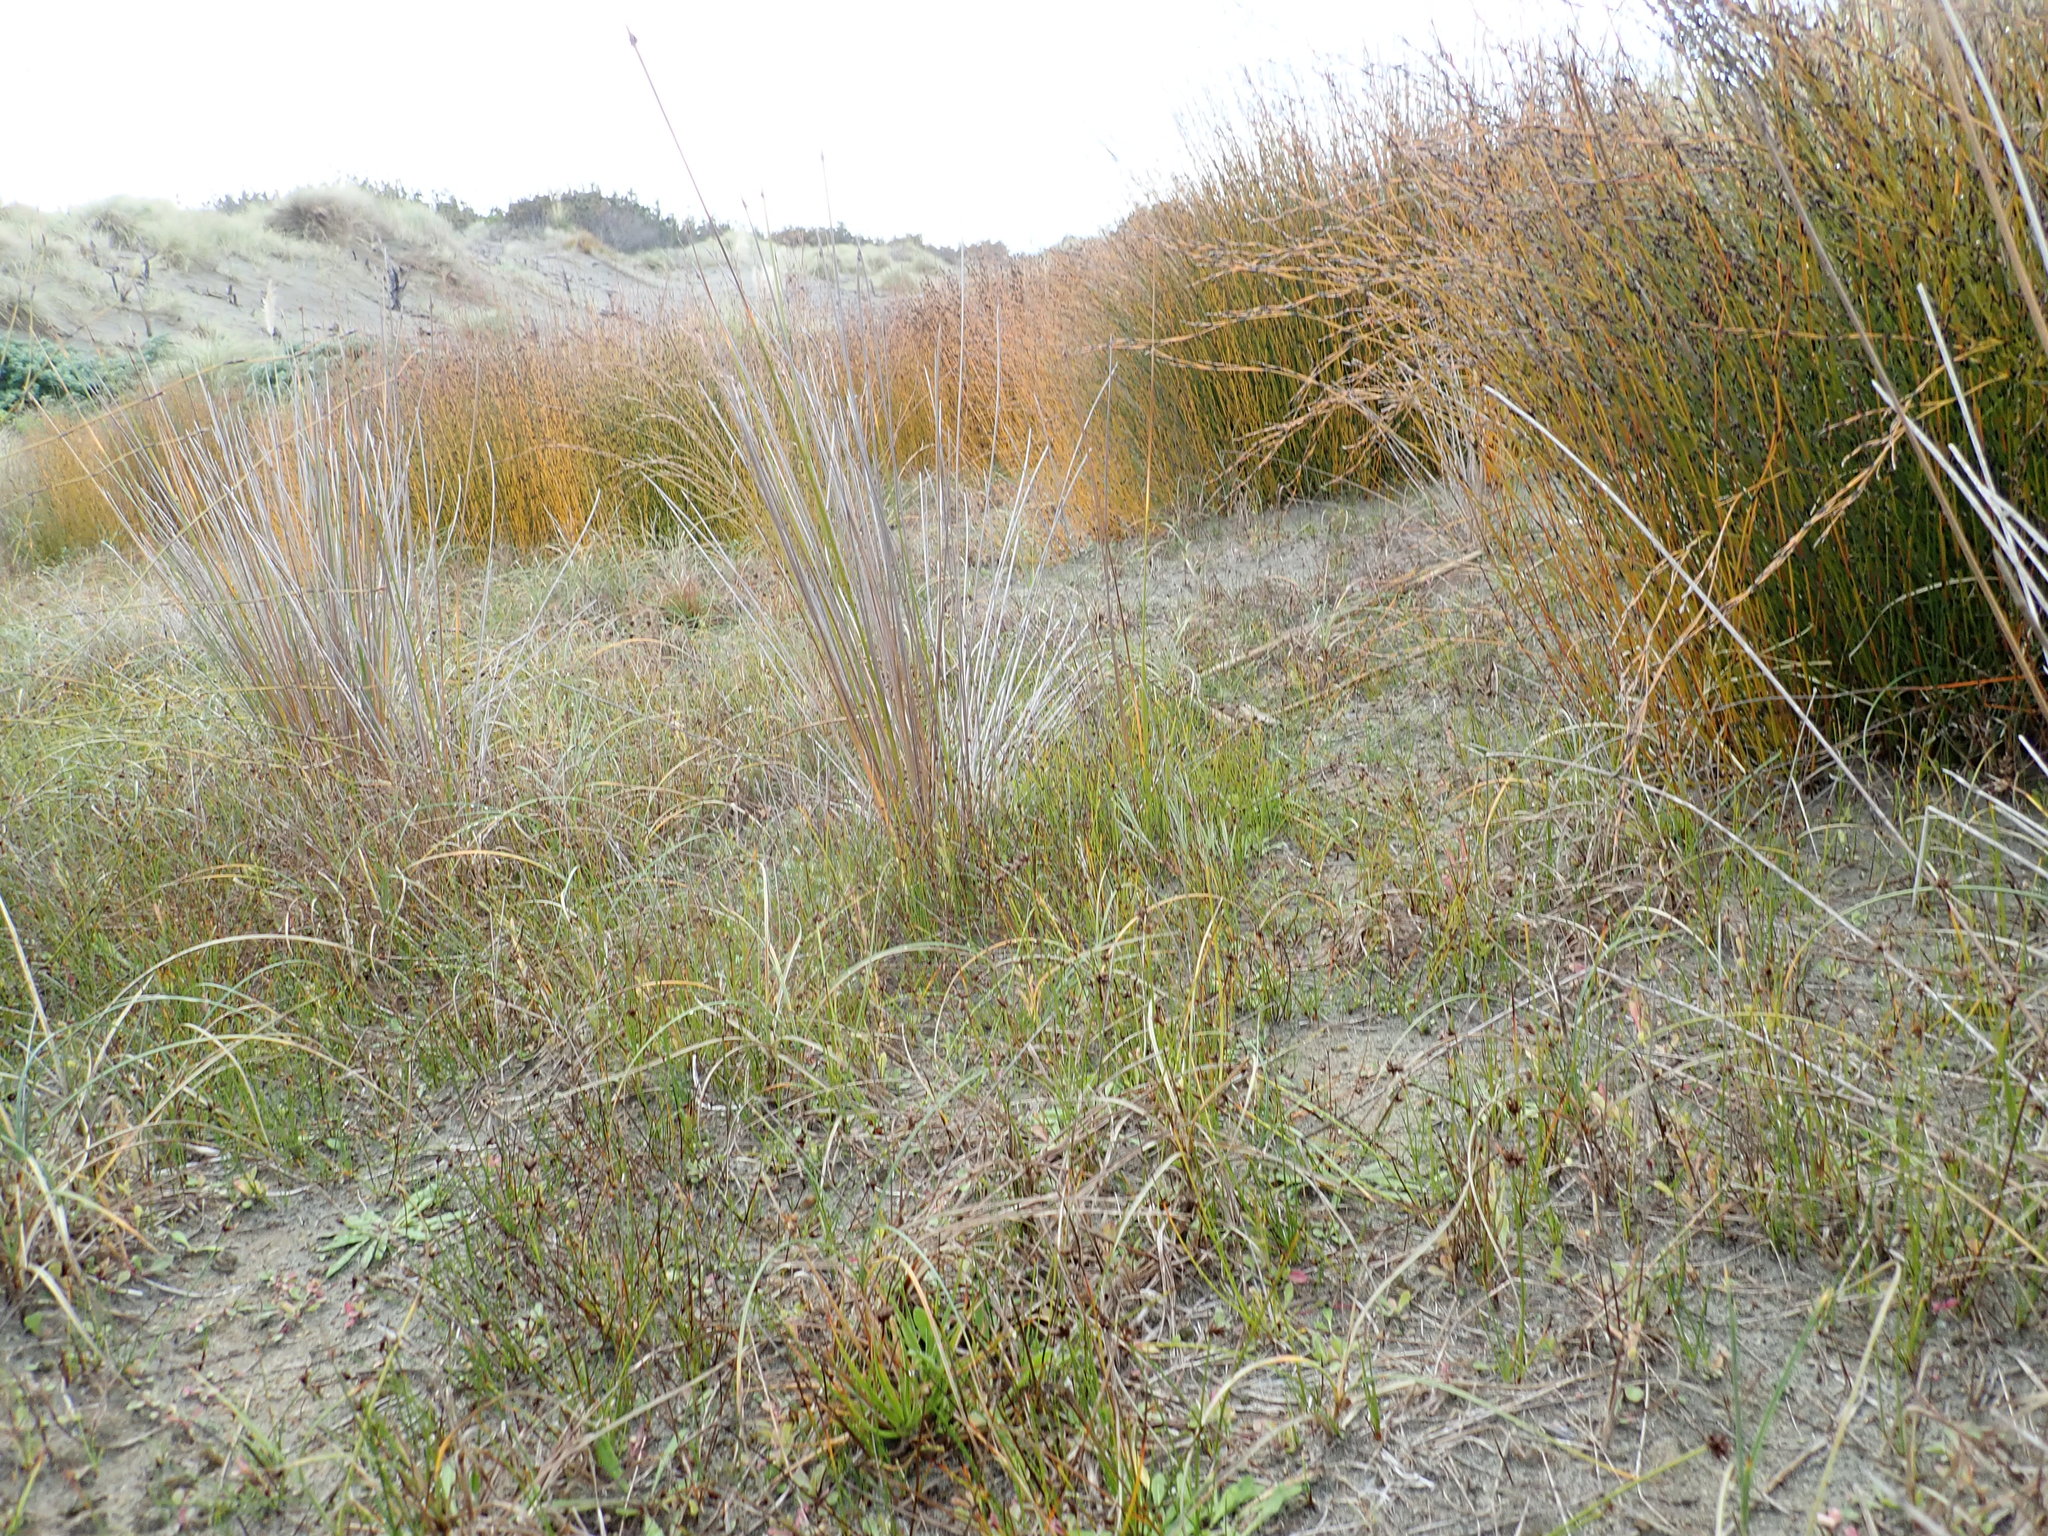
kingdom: Plantae
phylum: Tracheophyta
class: Liliopsida
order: Poales
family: Juncaceae
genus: Juncus
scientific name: Juncus caespiticius
